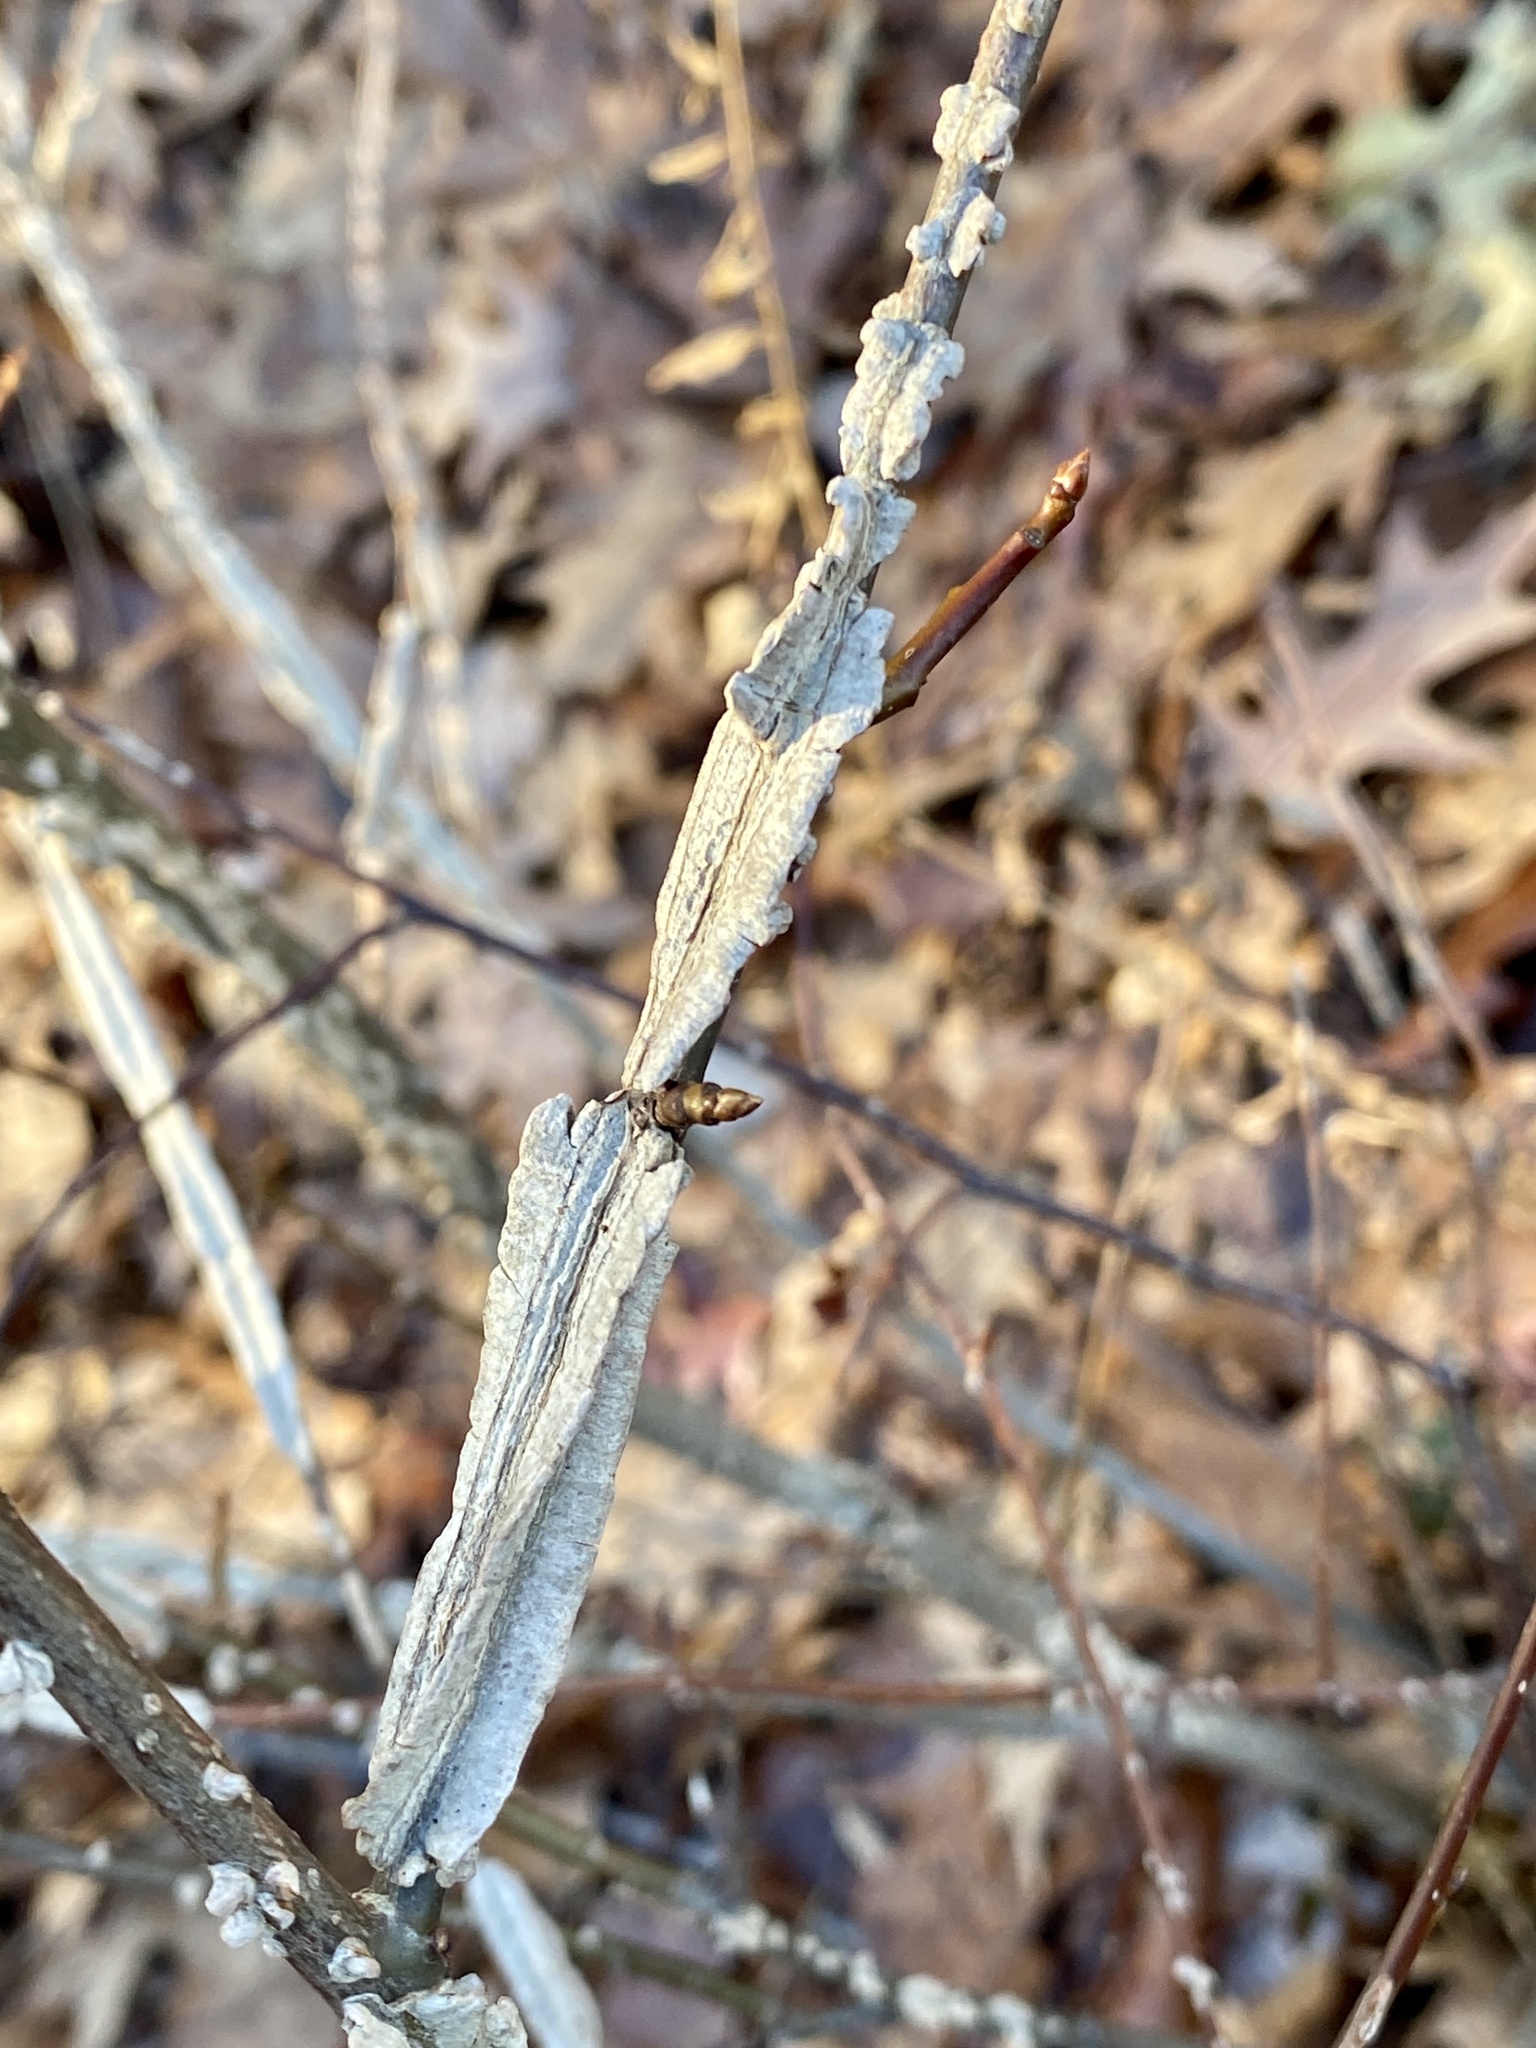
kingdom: Plantae
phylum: Tracheophyta
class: Magnoliopsida
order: Saxifragales
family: Altingiaceae
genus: Liquidambar
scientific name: Liquidambar styraciflua
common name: Sweet gum
